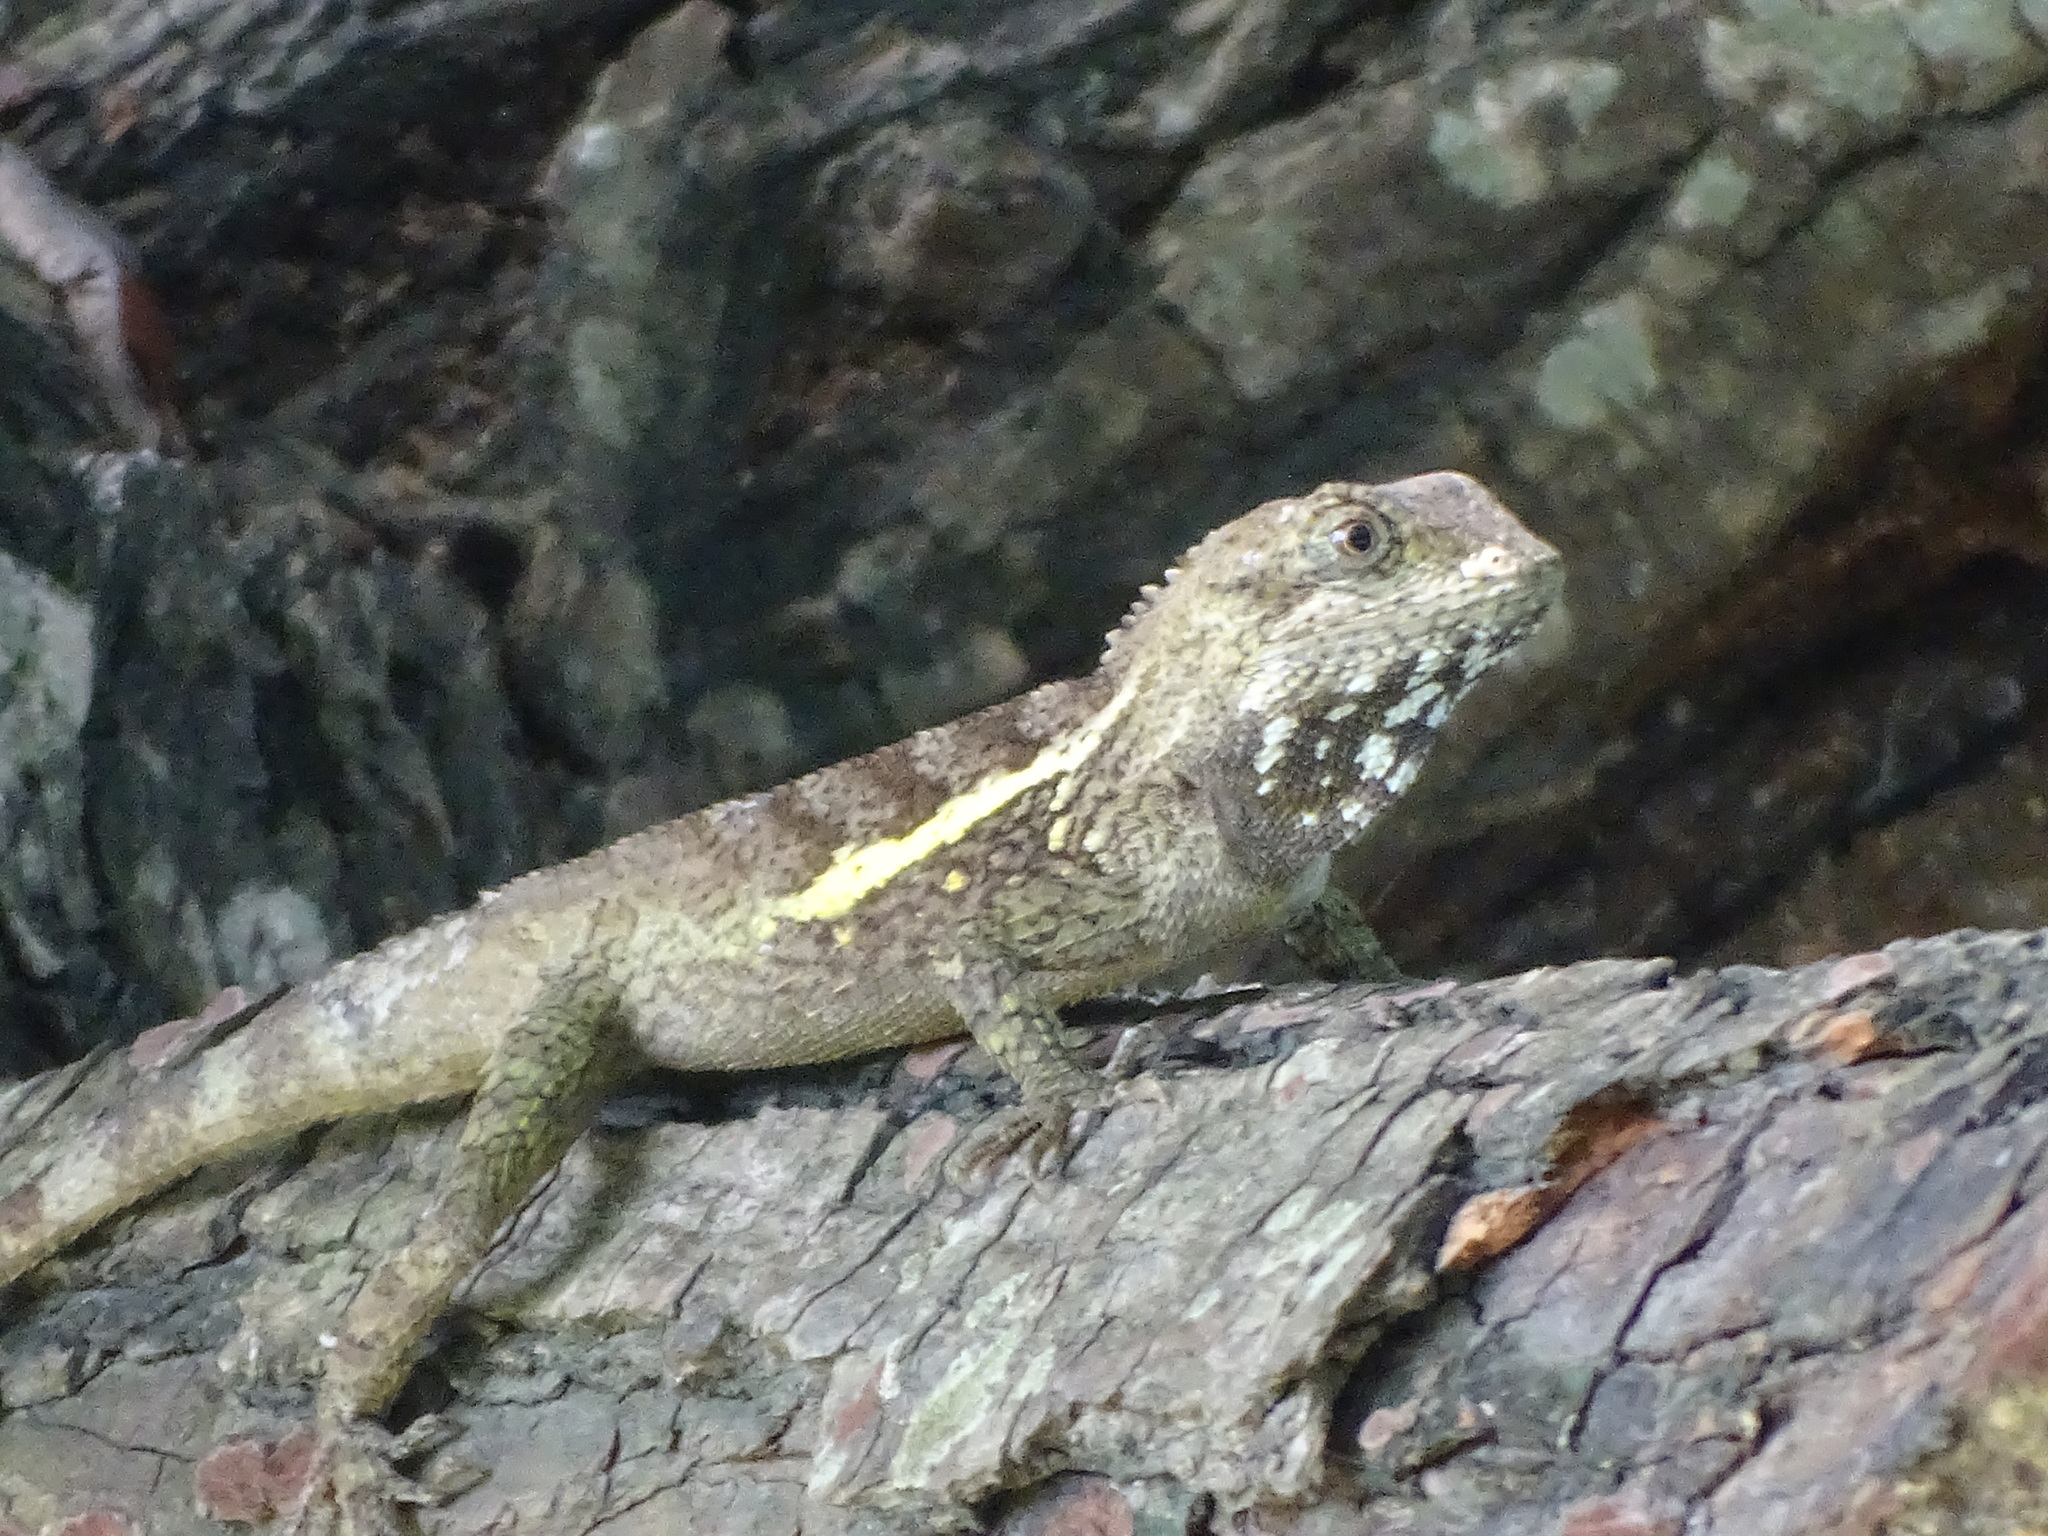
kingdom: Animalia
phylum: Chordata
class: Squamata
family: Agamidae
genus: Diploderma
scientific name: Diploderma swinhonis
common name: Taiwan japalure
